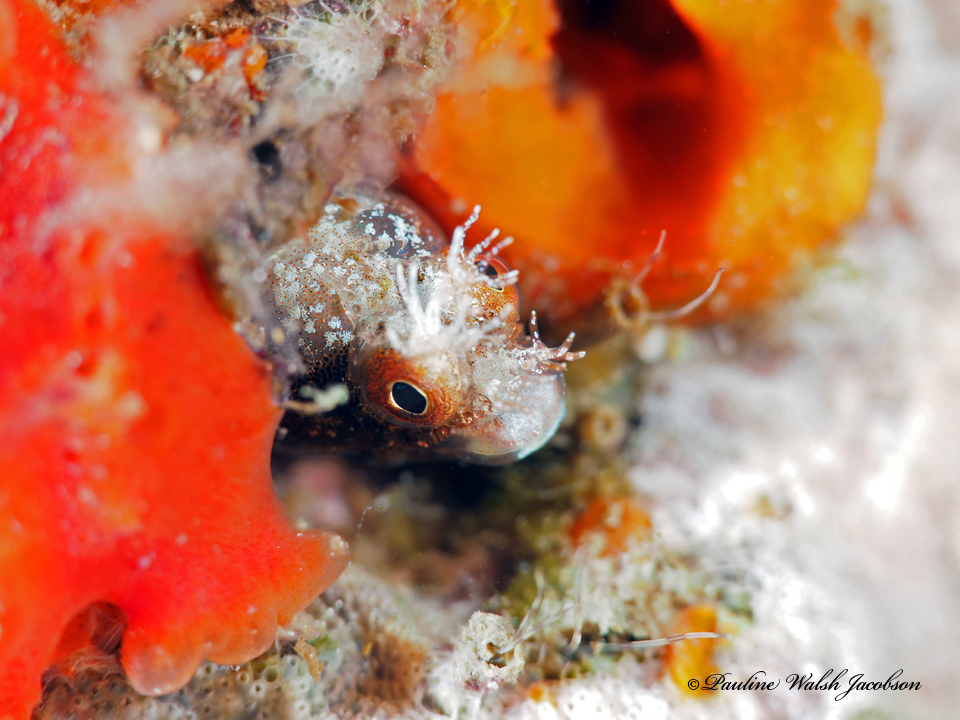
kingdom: Animalia
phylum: Chordata
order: Perciformes
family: Chaenopsidae
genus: Acanthemblemaria
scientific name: Acanthemblemaria aspera
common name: Roughhead blenny
